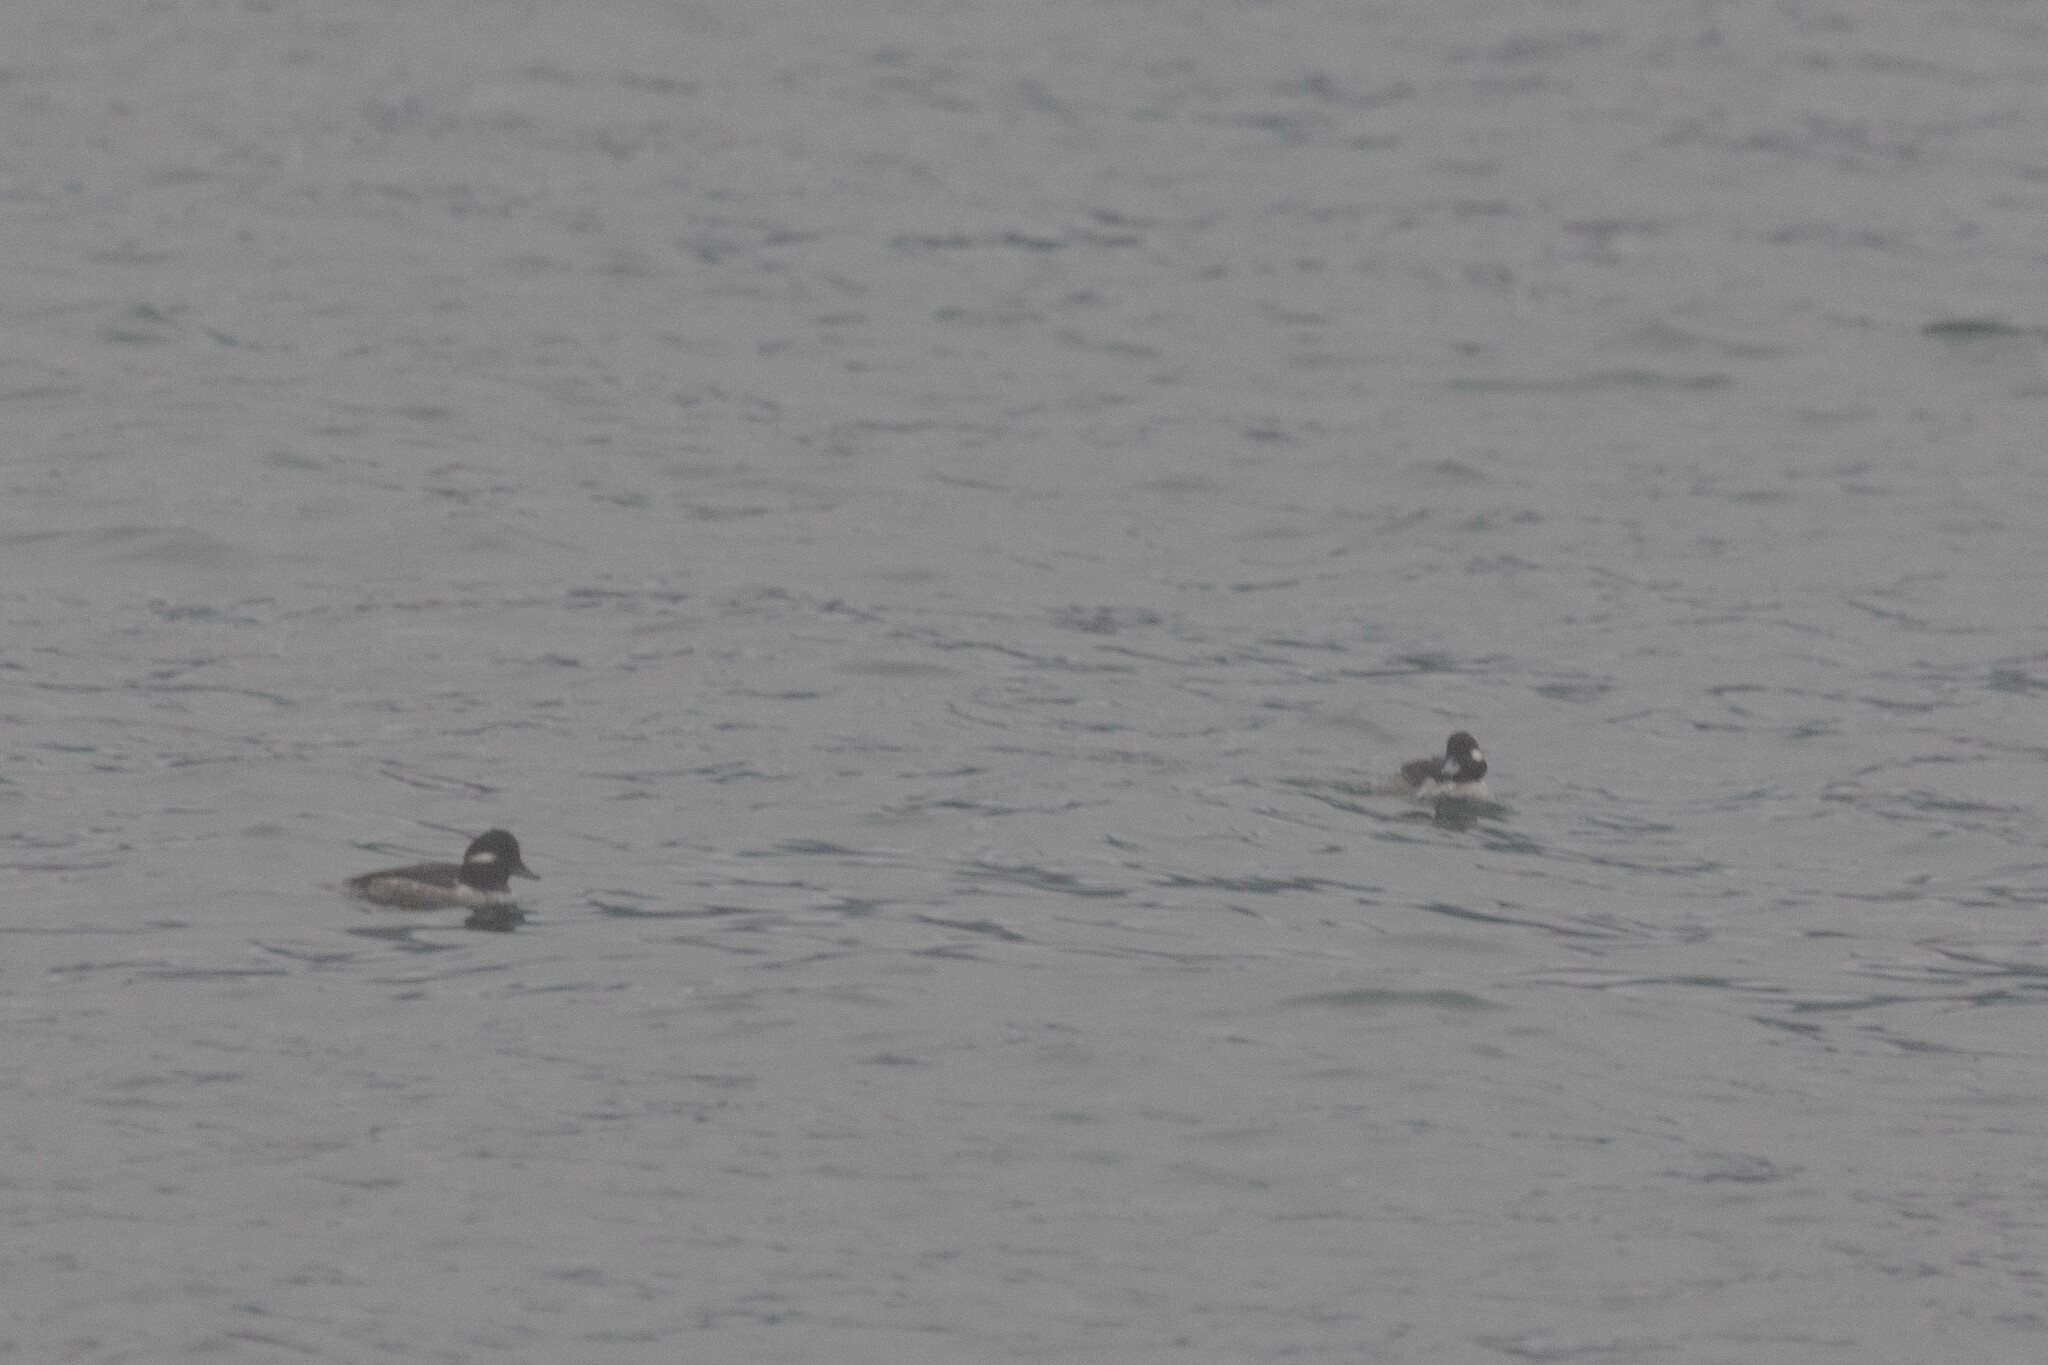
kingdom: Animalia
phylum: Chordata
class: Aves
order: Anseriformes
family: Anatidae
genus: Bucephala
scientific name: Bucephala albeola
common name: Bufflehead
